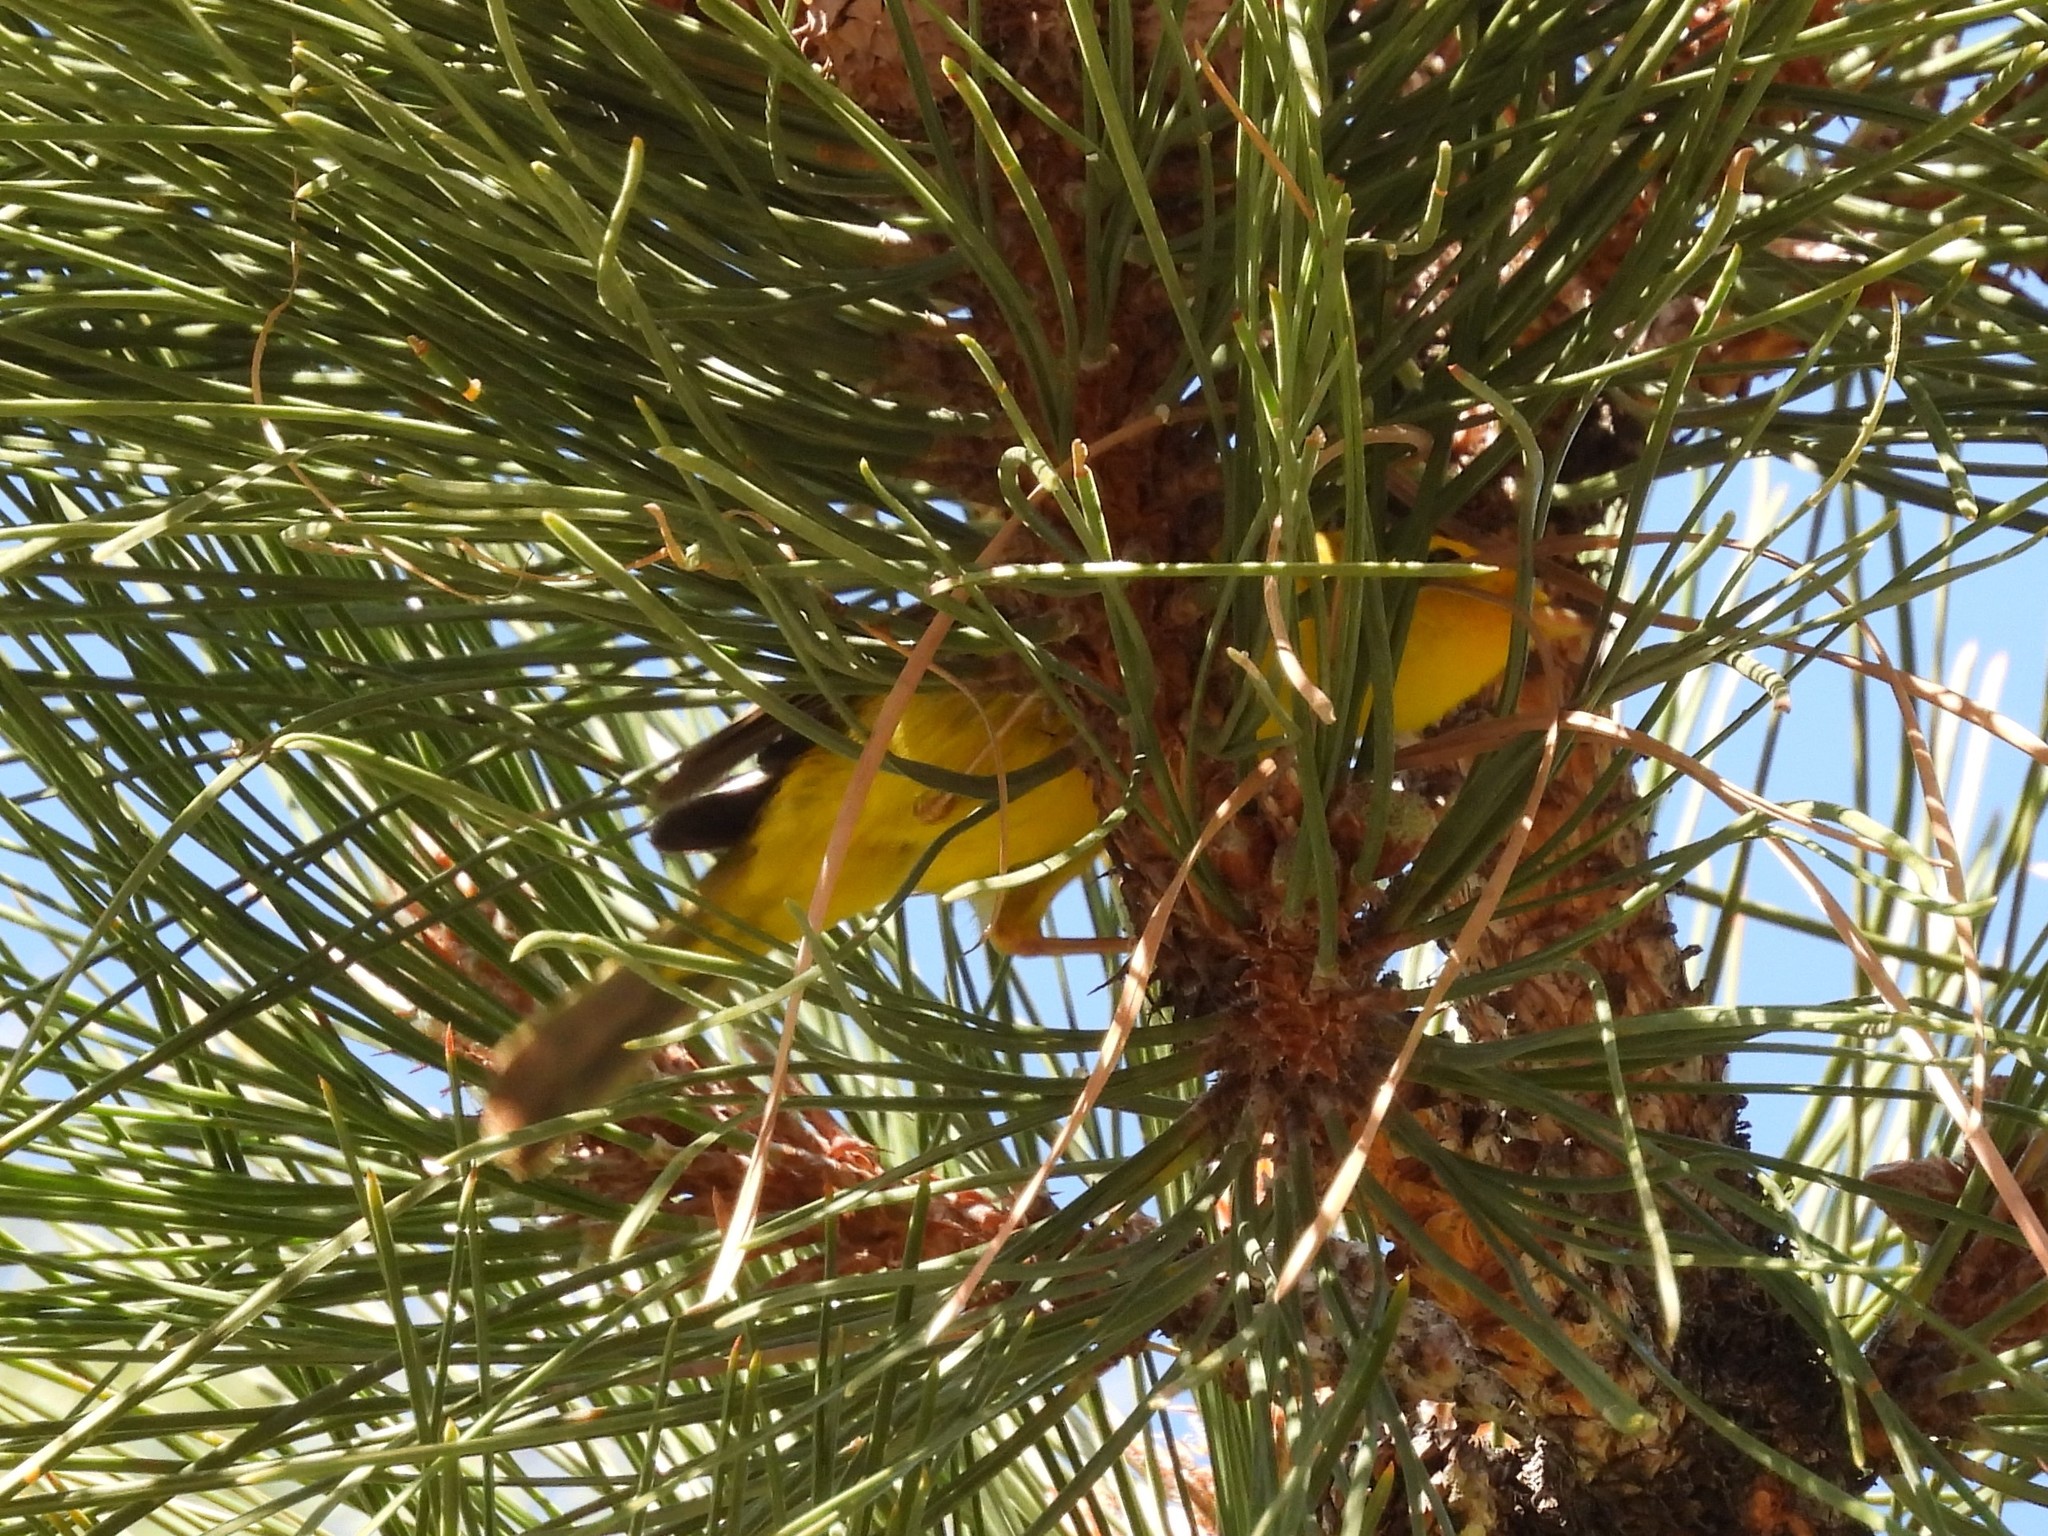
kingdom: Animalia
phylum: Chordata
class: Aves
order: Passeriformes
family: Parulidae
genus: Cardellina
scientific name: Cardellina pusilla
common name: Wilson's warbler
